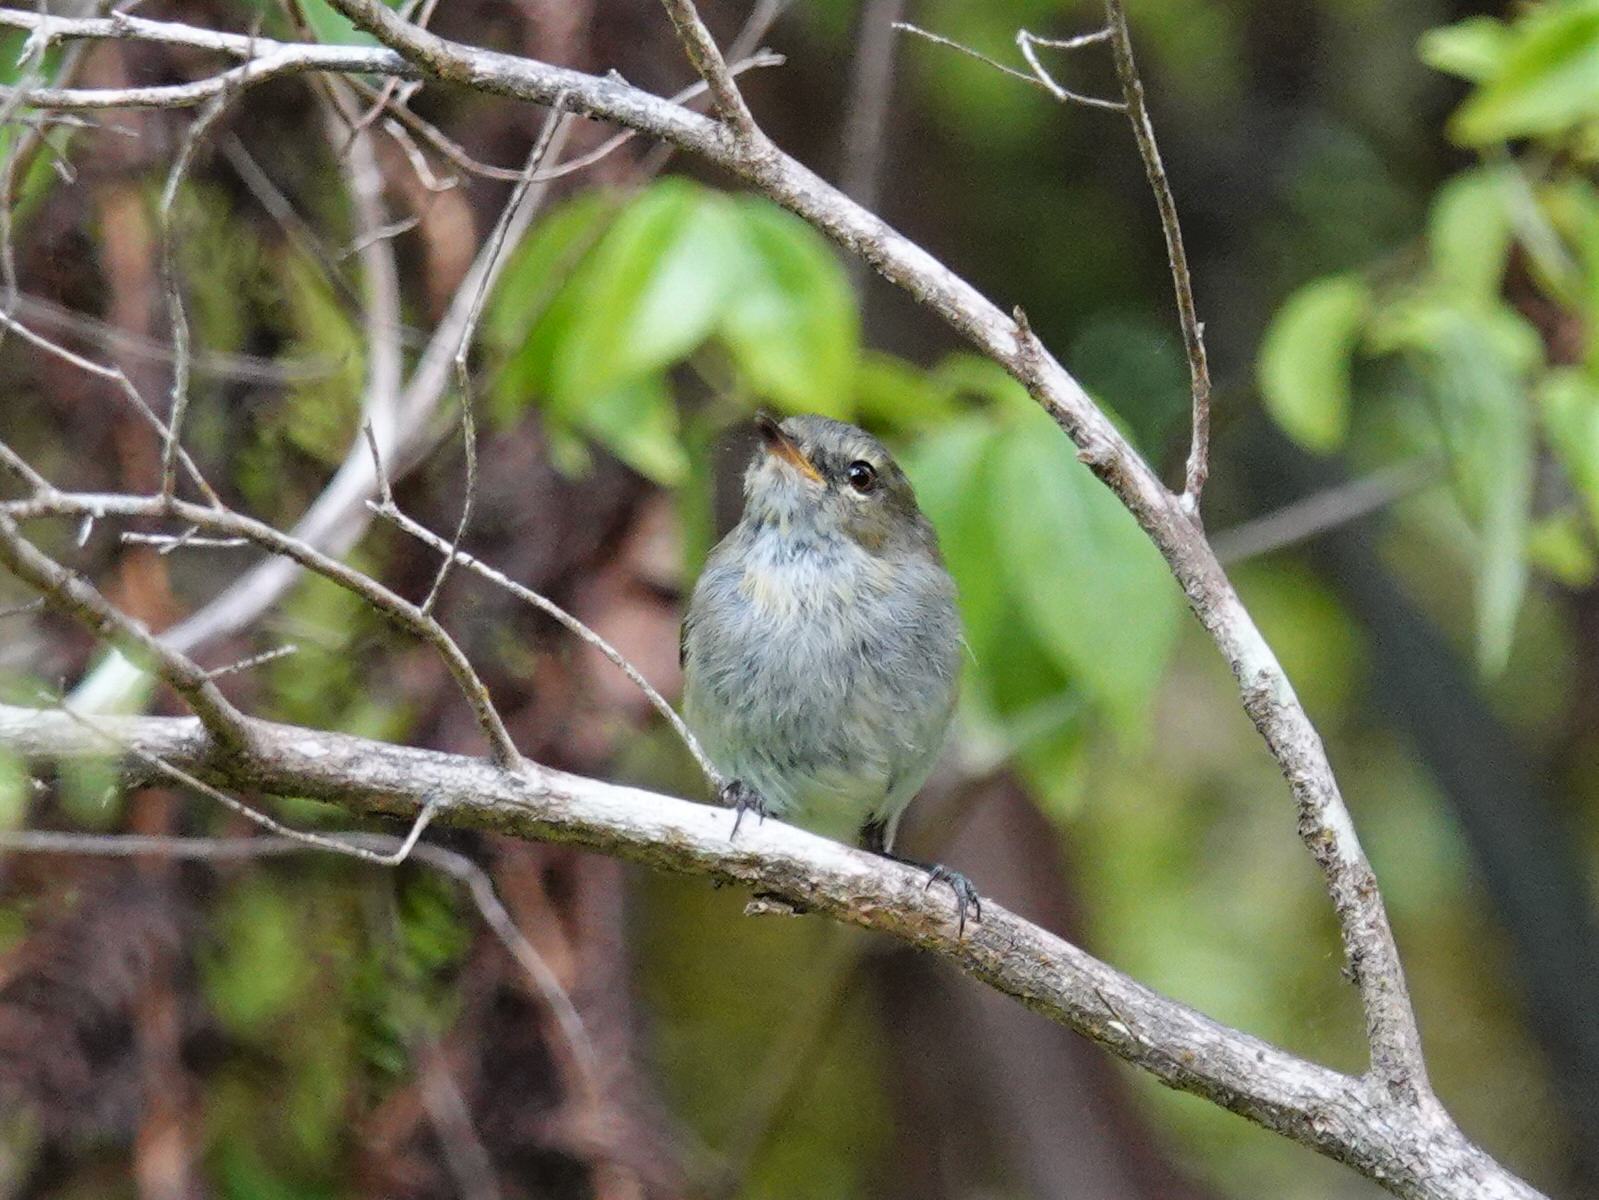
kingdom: Animalia
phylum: Chordata
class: Aves
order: Passeriformes
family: Acanthizidae
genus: Gerygone
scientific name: Gerygone igata
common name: Grey gerygone
